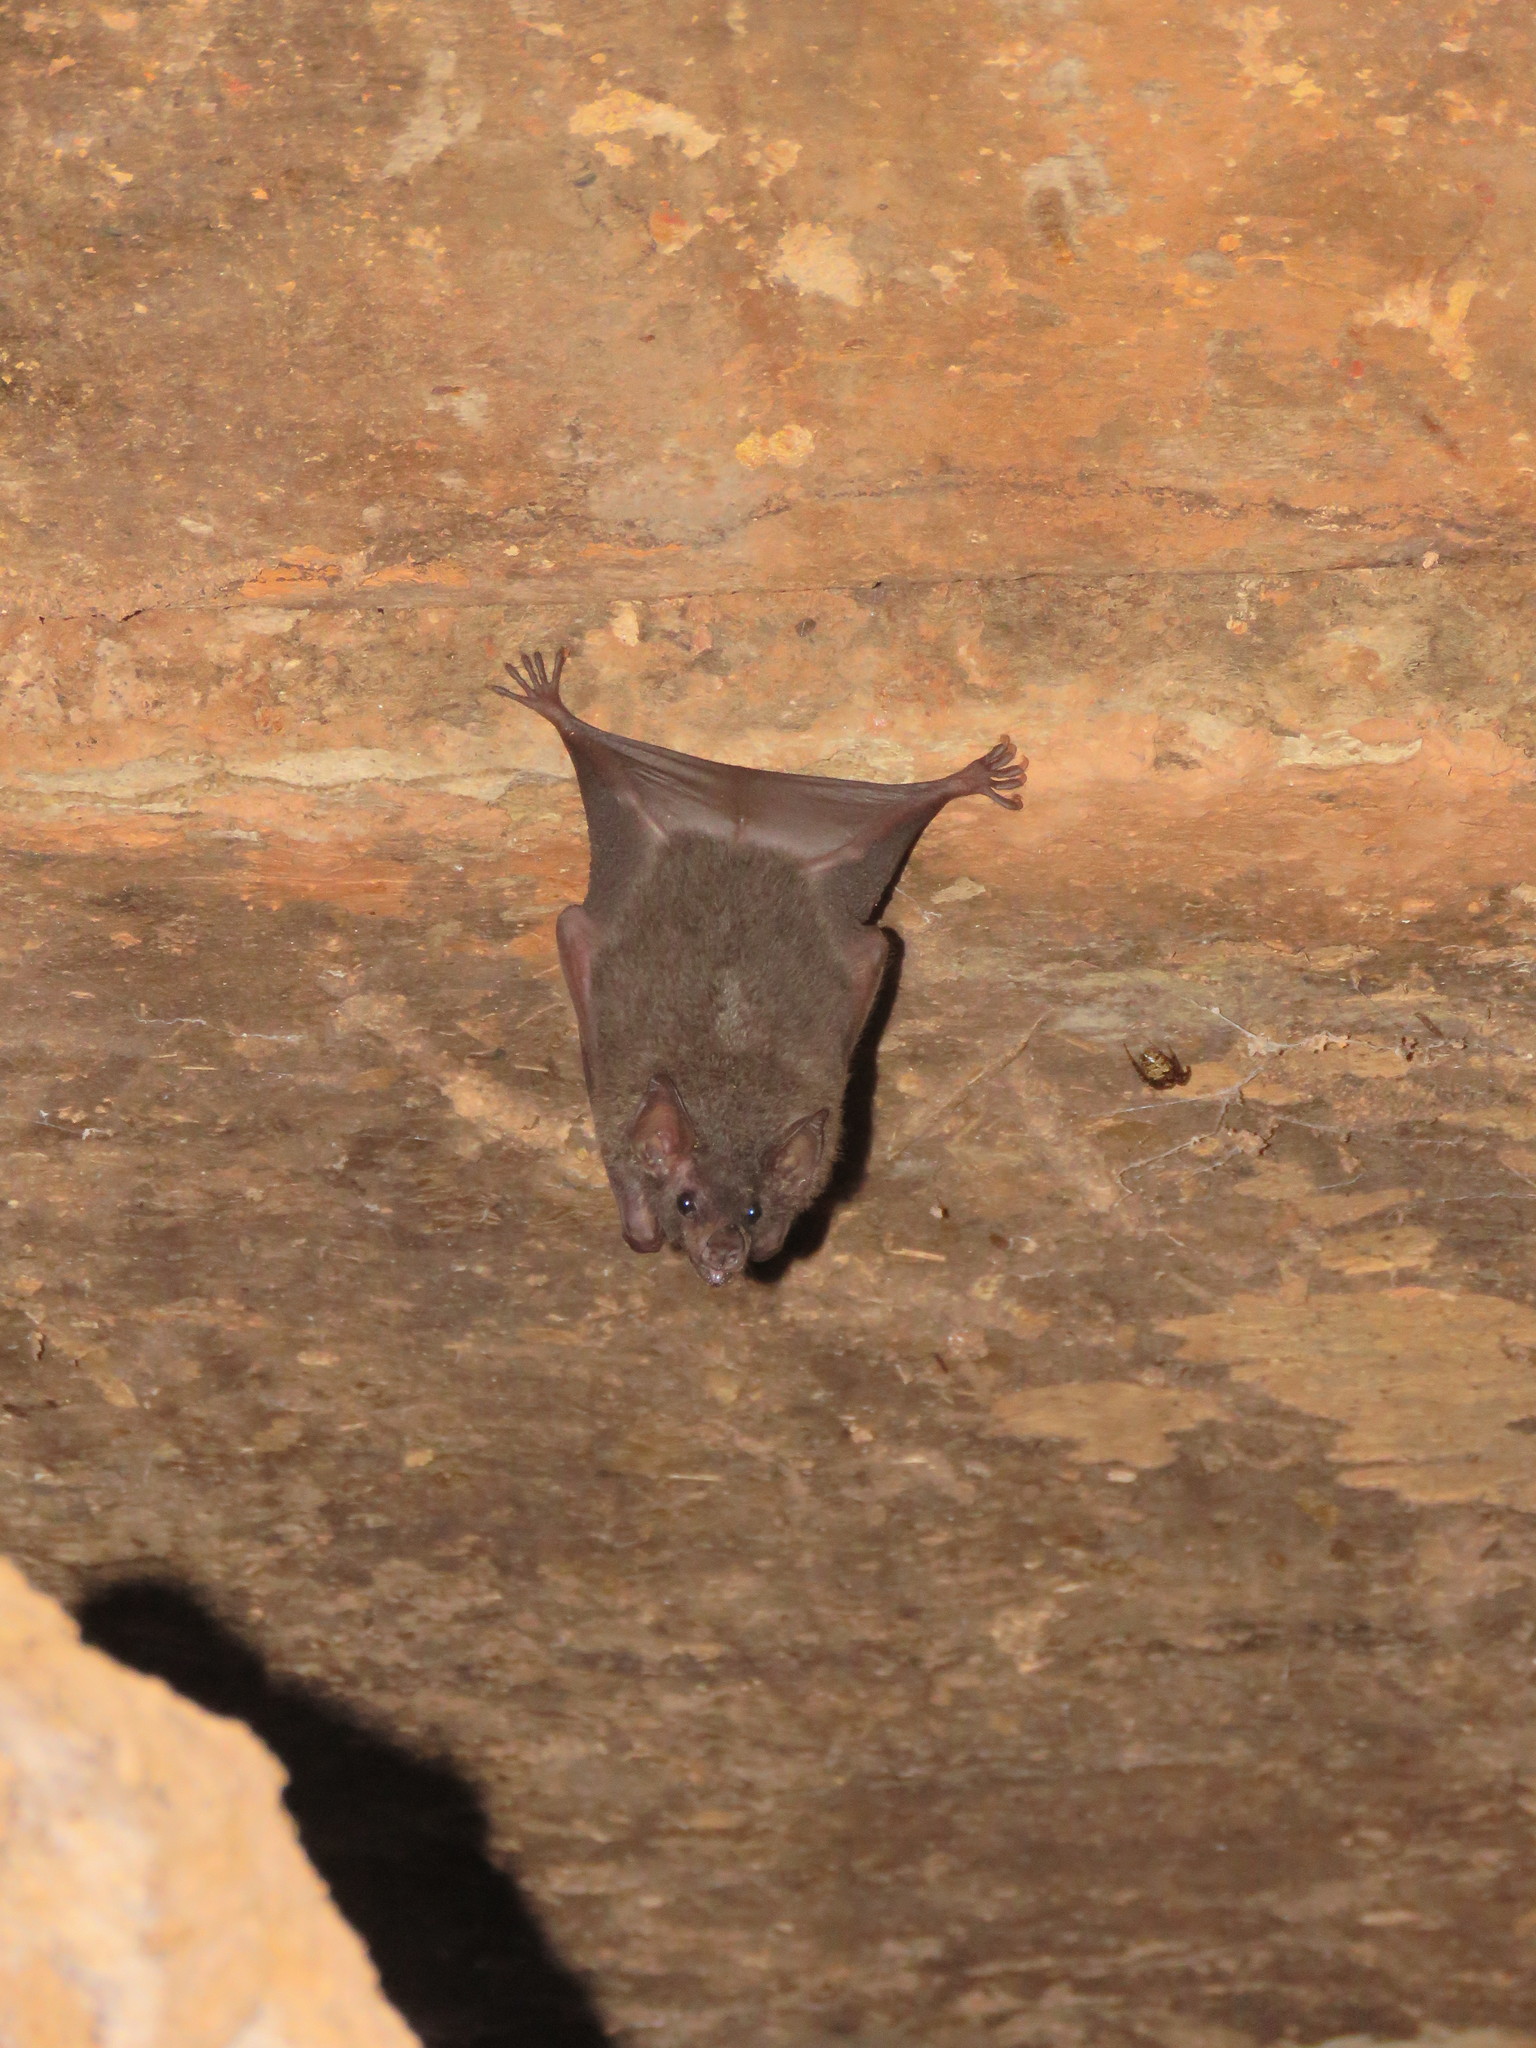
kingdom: Animalia
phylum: Chordata
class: Mammalia
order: Chiroptera
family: Phyllostomidae
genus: Glossophaga
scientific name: Glossophaga soricina
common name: Pallas's long-tongued bat
